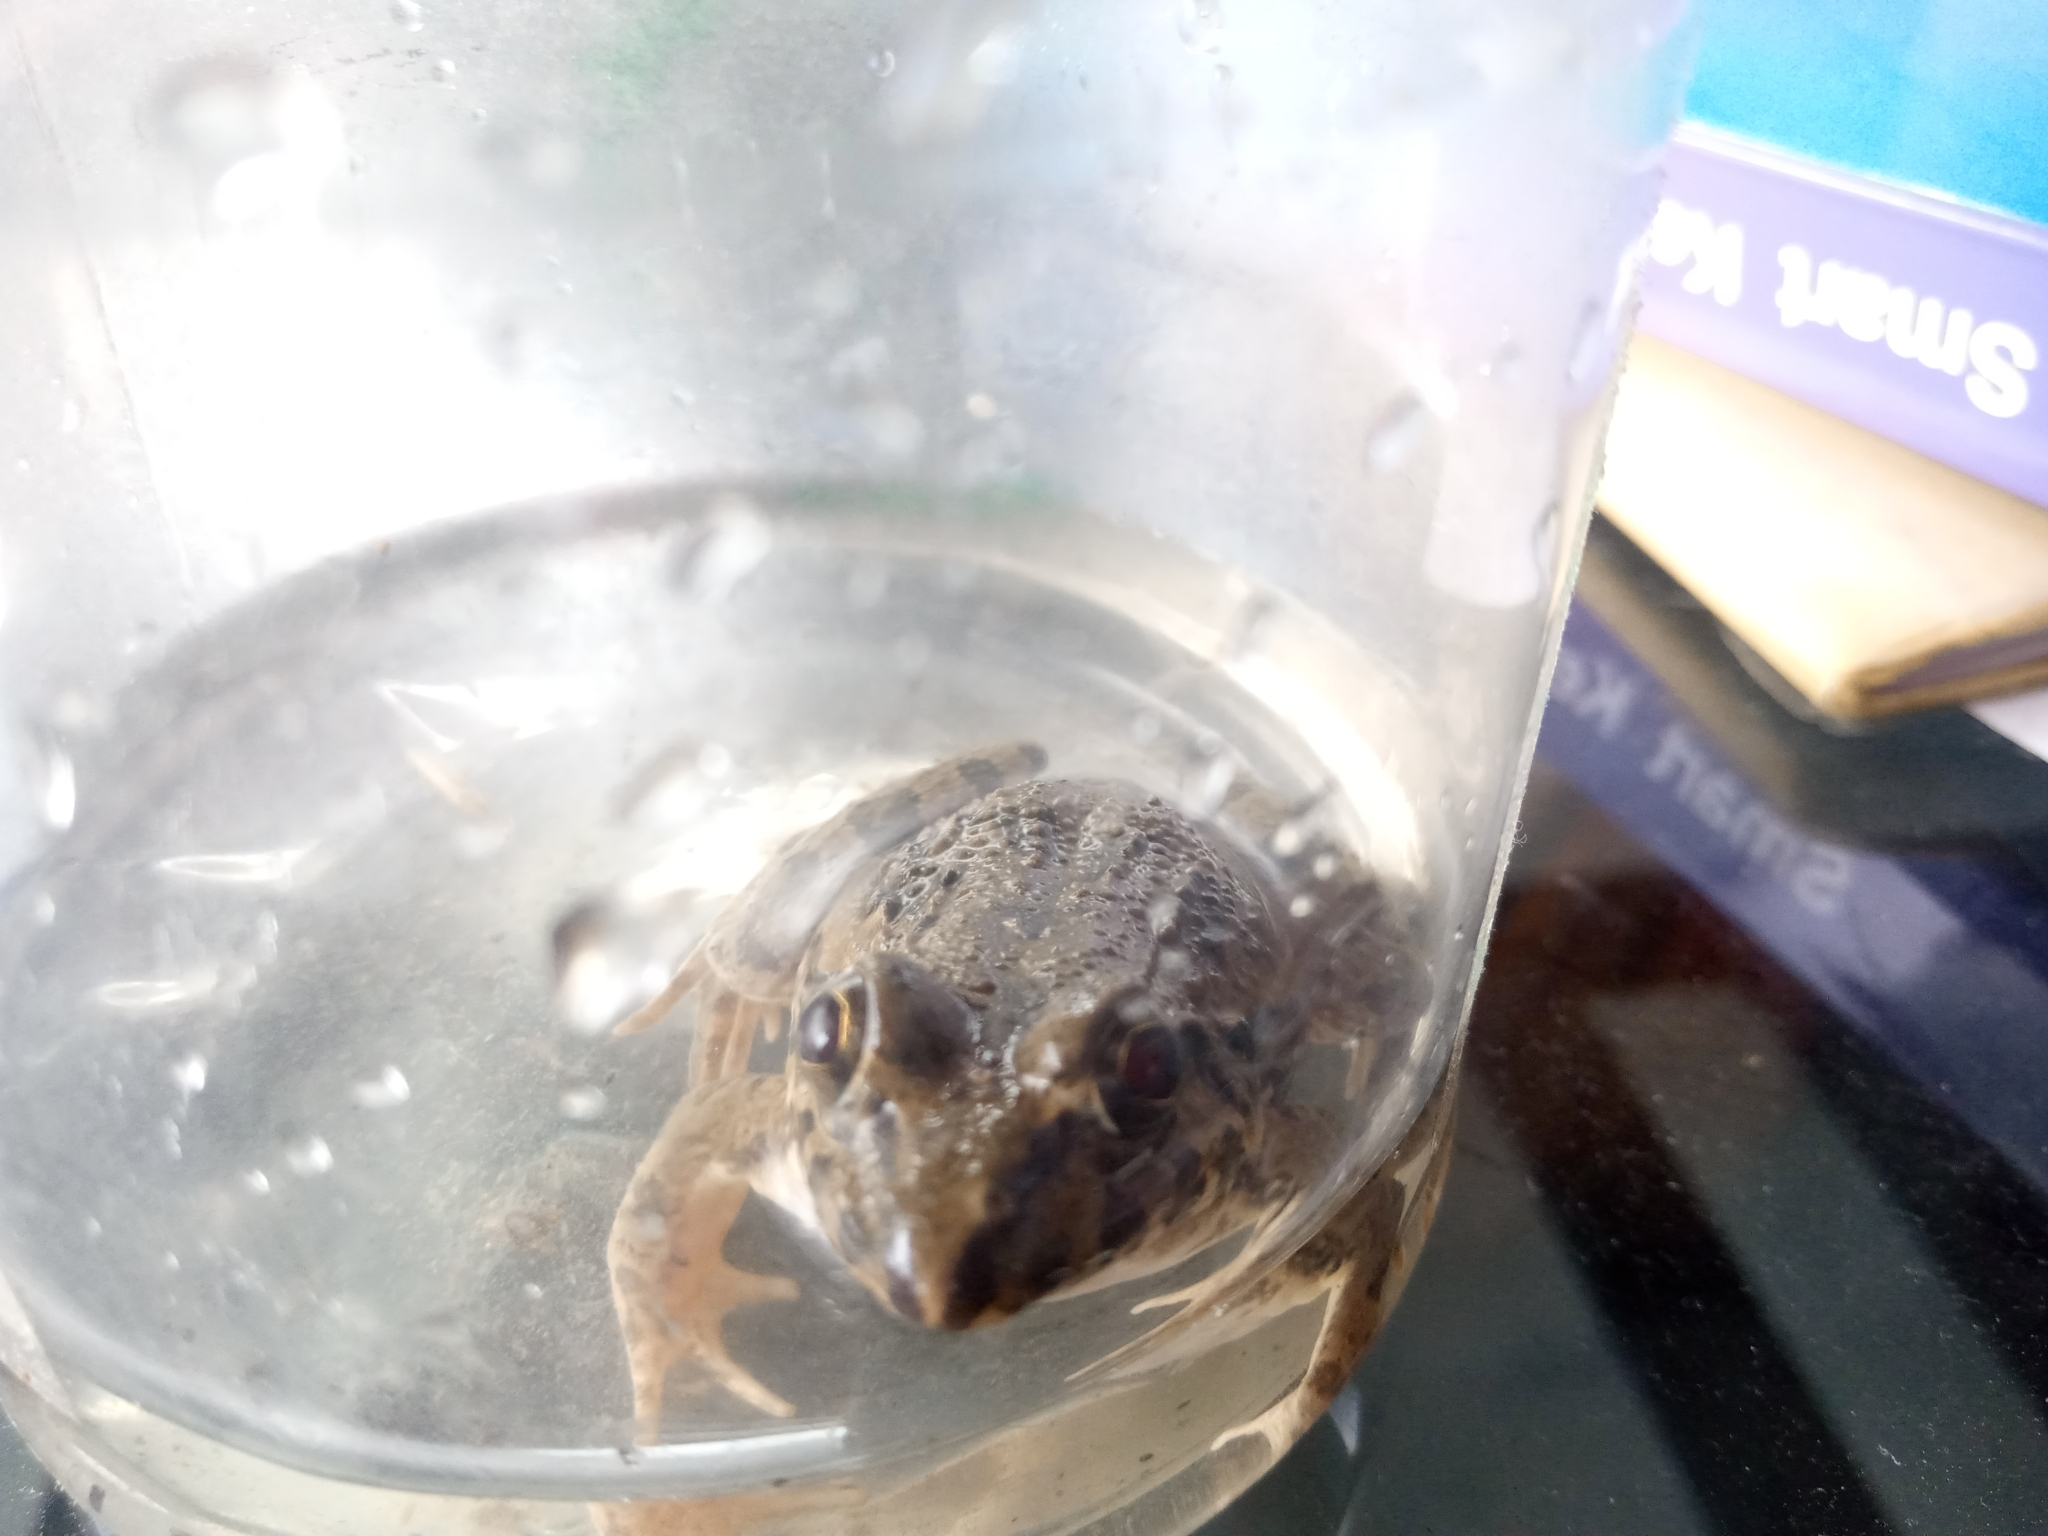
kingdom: Animalia
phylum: Chordata
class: Amphibia
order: Anura
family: Dicroglossidae
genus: Fejervarya
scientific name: Fejervarya cancrivora
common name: Crab-eating frog/mangrove frog/rice field frog/asian brackish frog
